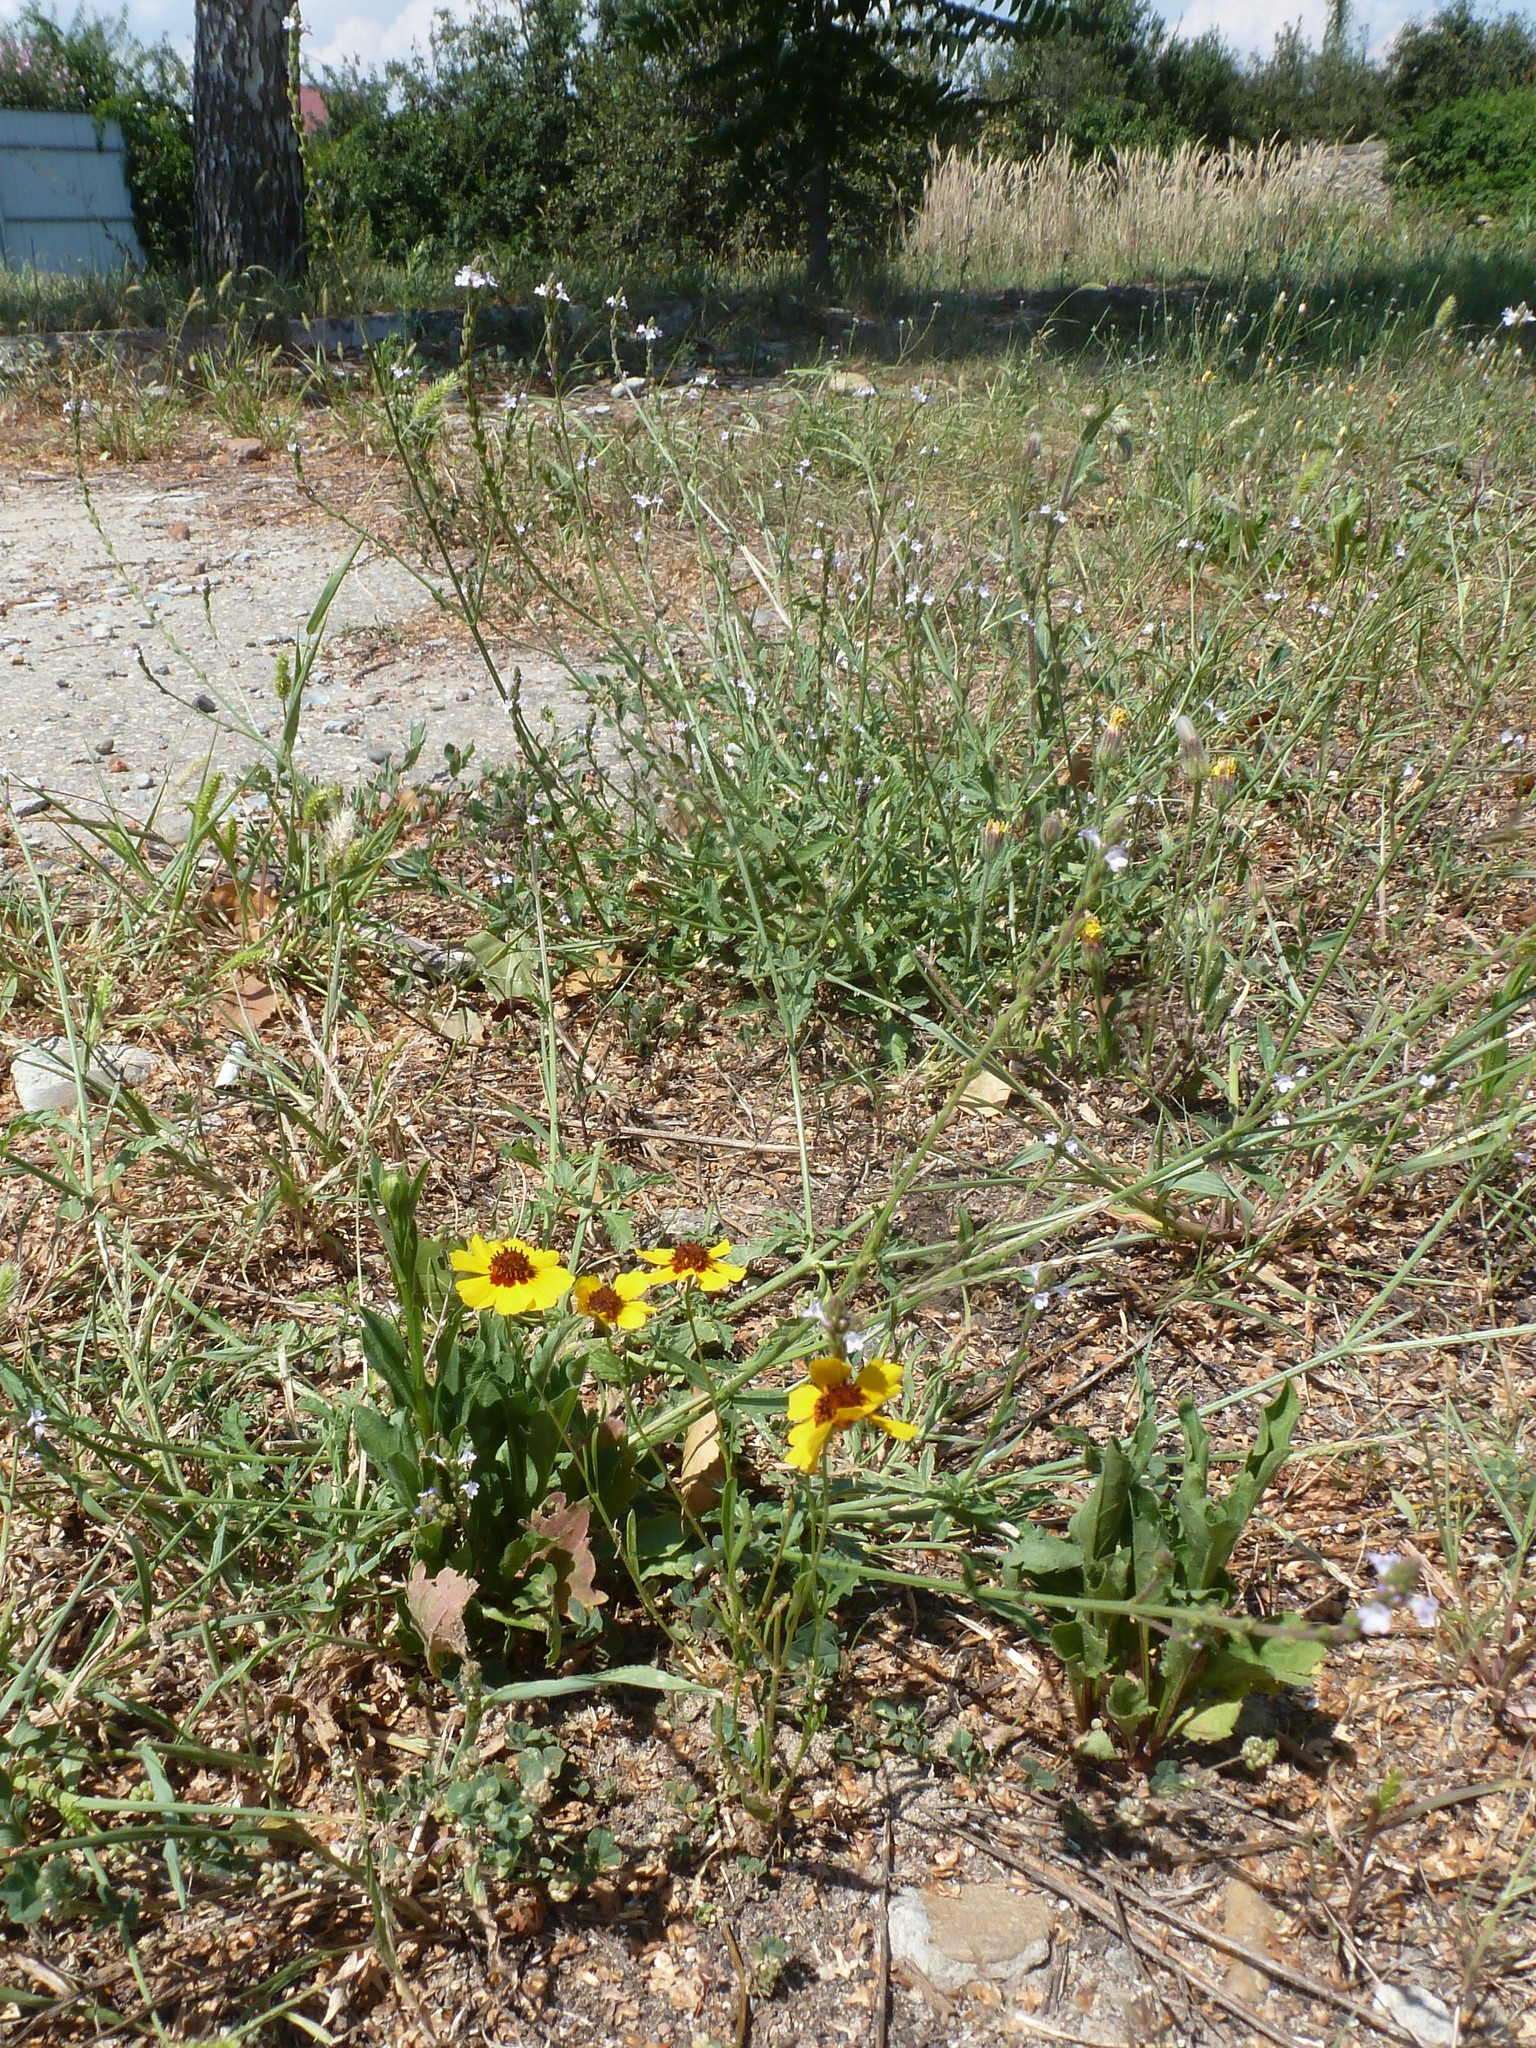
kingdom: Plantae
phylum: Tracheophyta
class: Magnoliopsida
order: Asterales
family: Asteraceae
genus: Coreopsis
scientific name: Coreopsis tinctoria
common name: Garden tickseed
